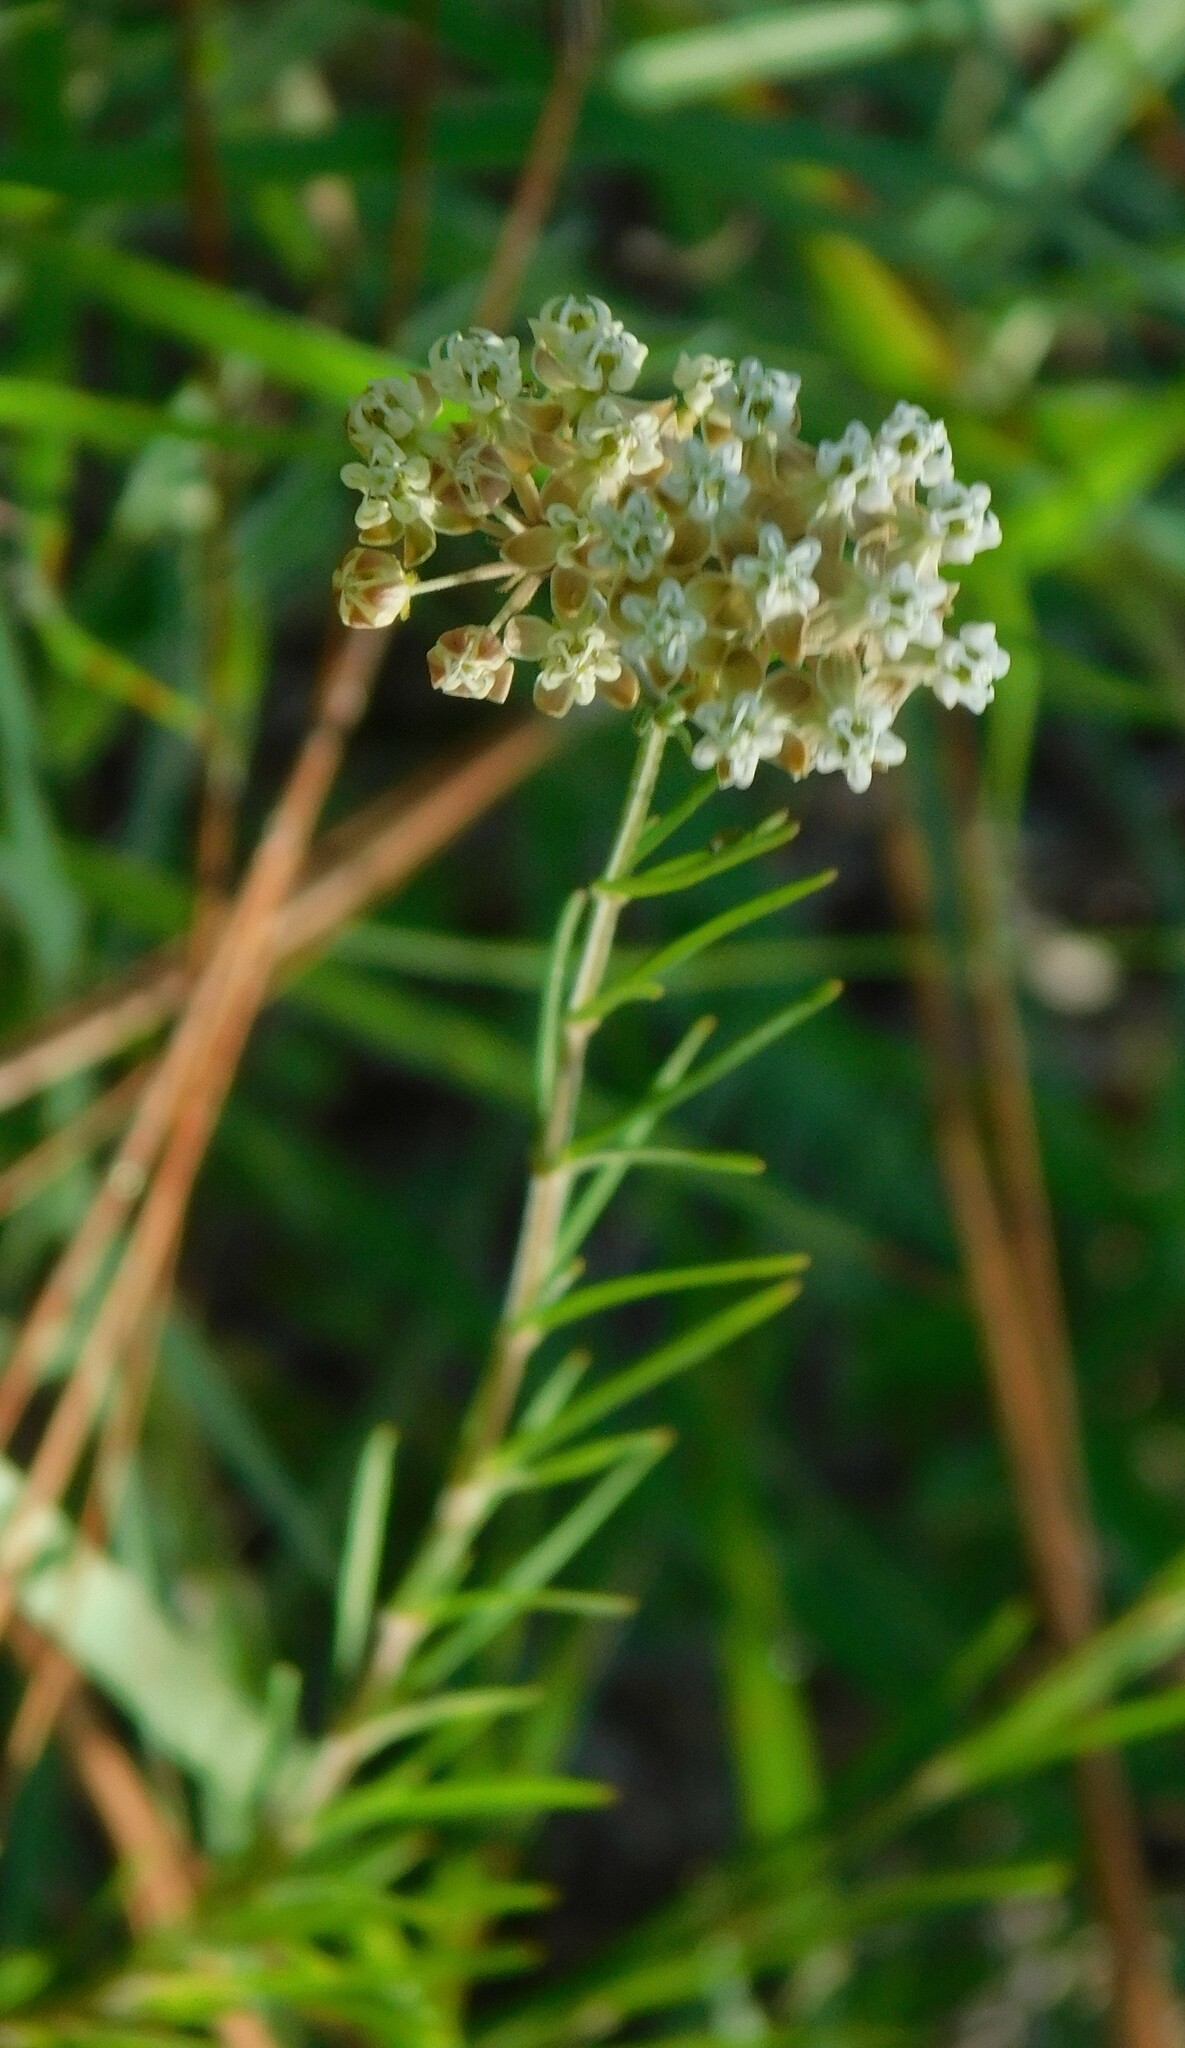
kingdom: Plantae
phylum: Tracheophyta
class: Magnoliopsida
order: Gentianales
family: Apocynaceae
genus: Asclepias
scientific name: Asclepias verticillata
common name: Eastern whorled milkweed
